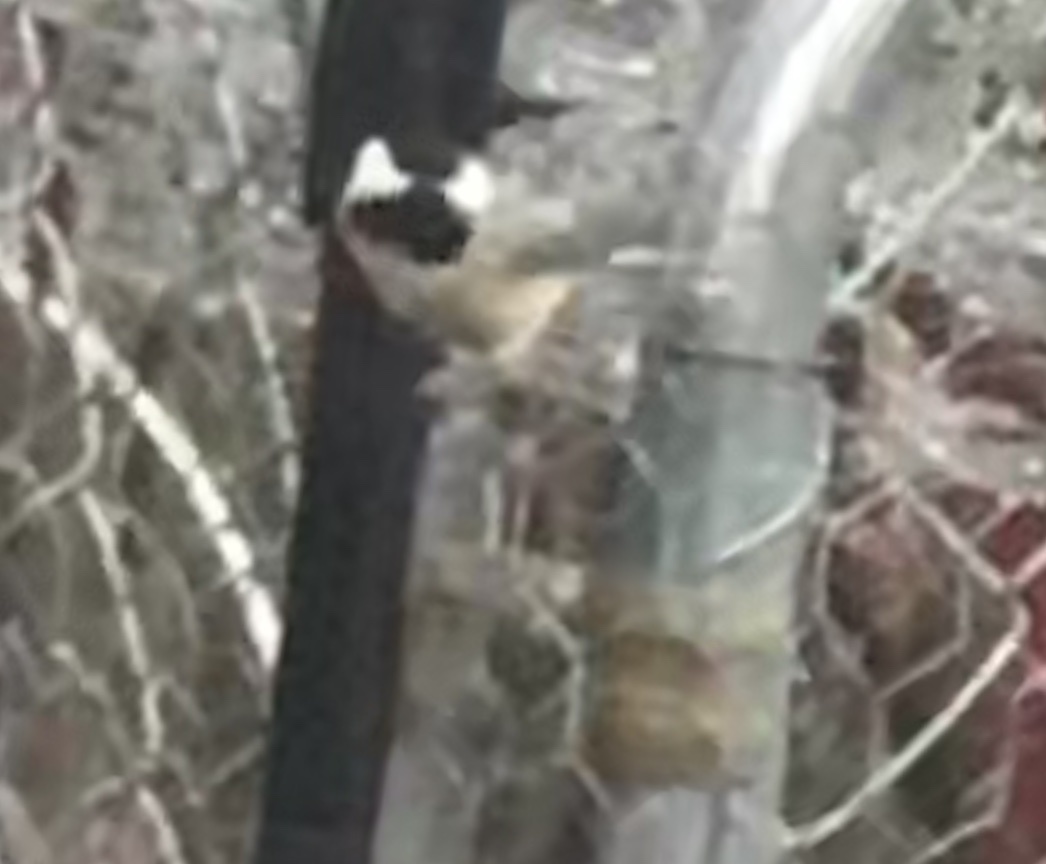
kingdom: Animalia
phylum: Chordata
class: Aves
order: Passeriformes
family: Paridae
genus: Poecile
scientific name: Poecile carolinensis
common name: Carolina chickadee
